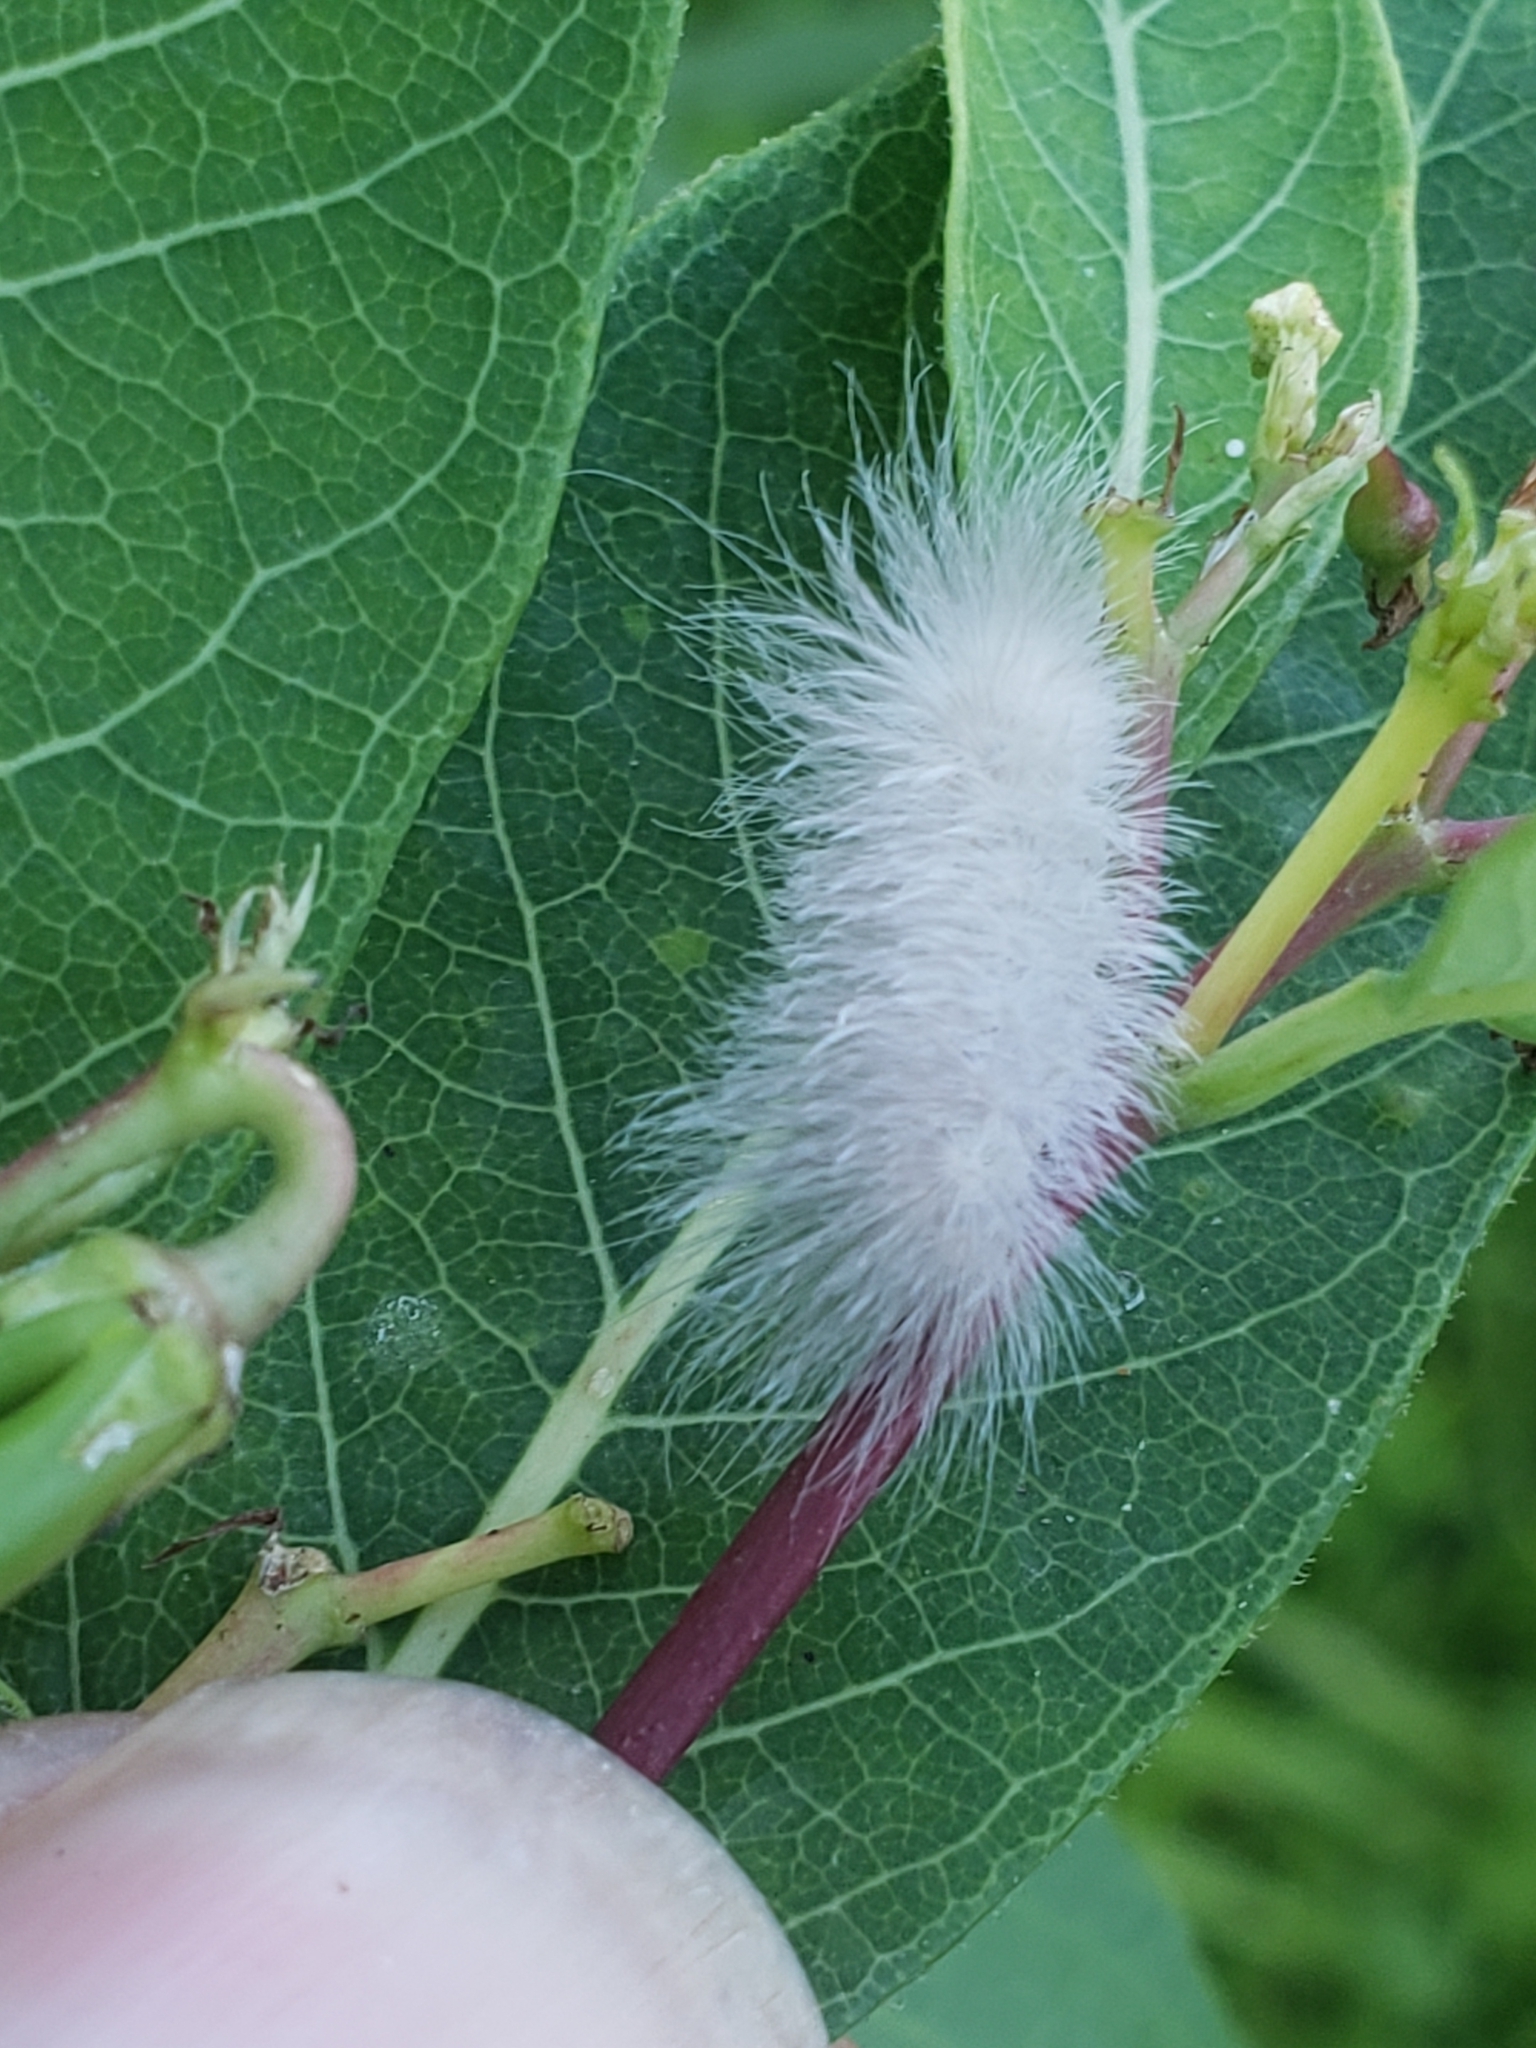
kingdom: Animalia
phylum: Arthropoda
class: Insecta
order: Lepidoptera
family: Erebidae
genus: Cycnia
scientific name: Cycnia tenera
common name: Delicate cycnia moth
